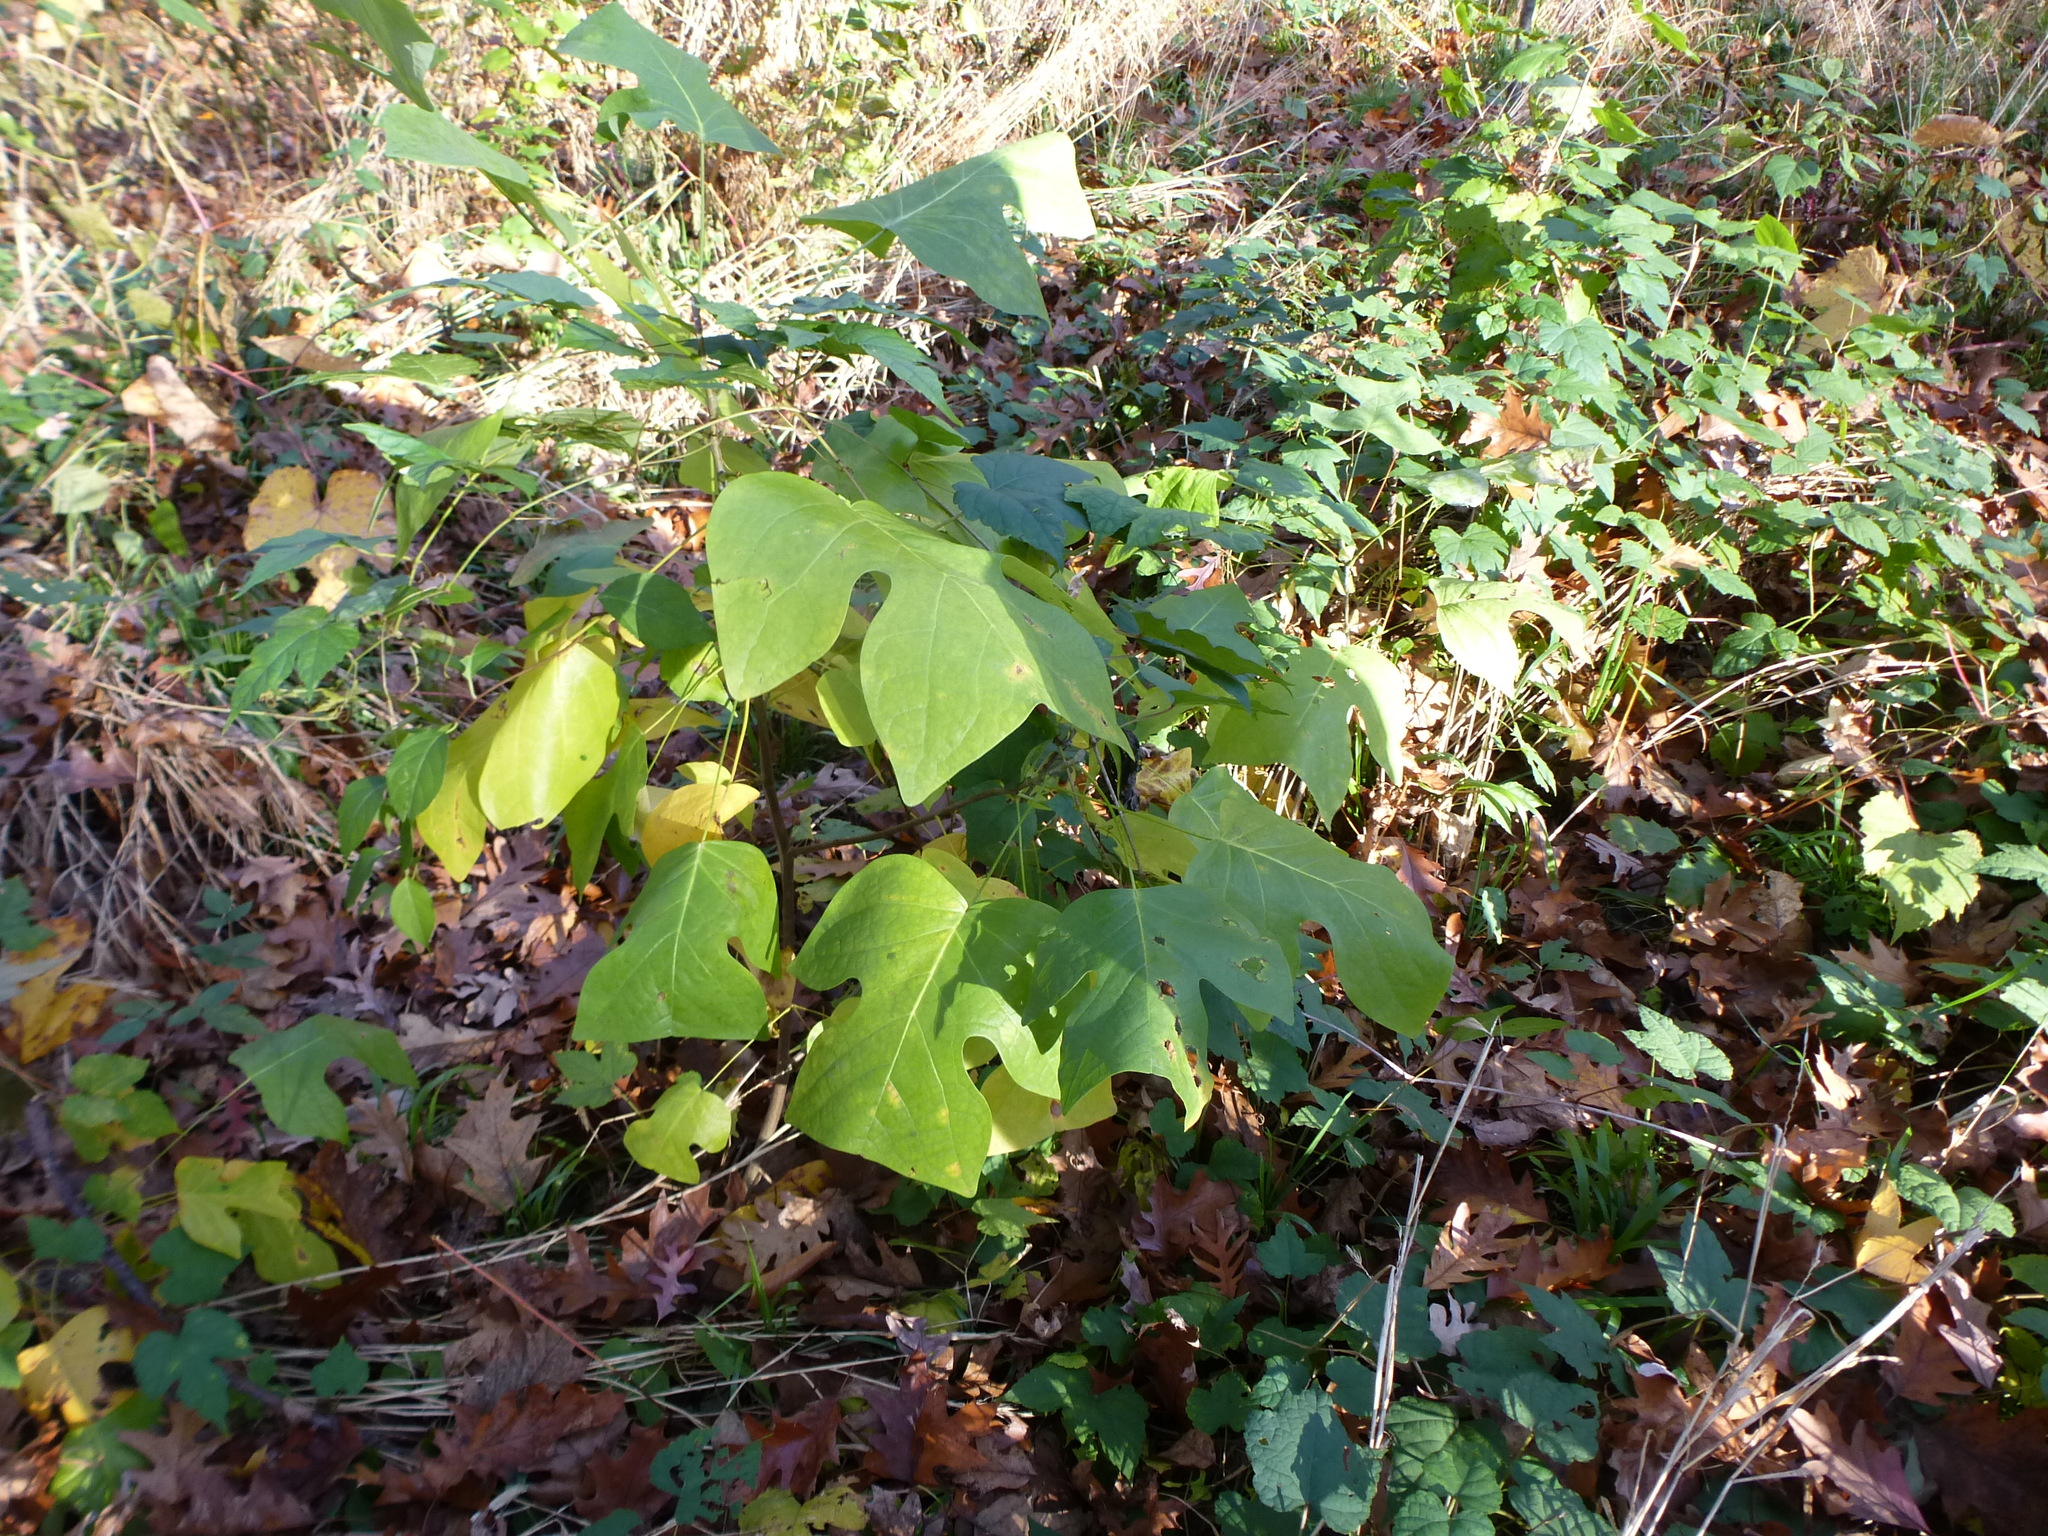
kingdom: Plantae
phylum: Tracheophyta
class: Magnoliopsida
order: Magnoliales
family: Magnoliaceae
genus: Liriodendron
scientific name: Liriodendron tulipifera
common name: Tulip tree
